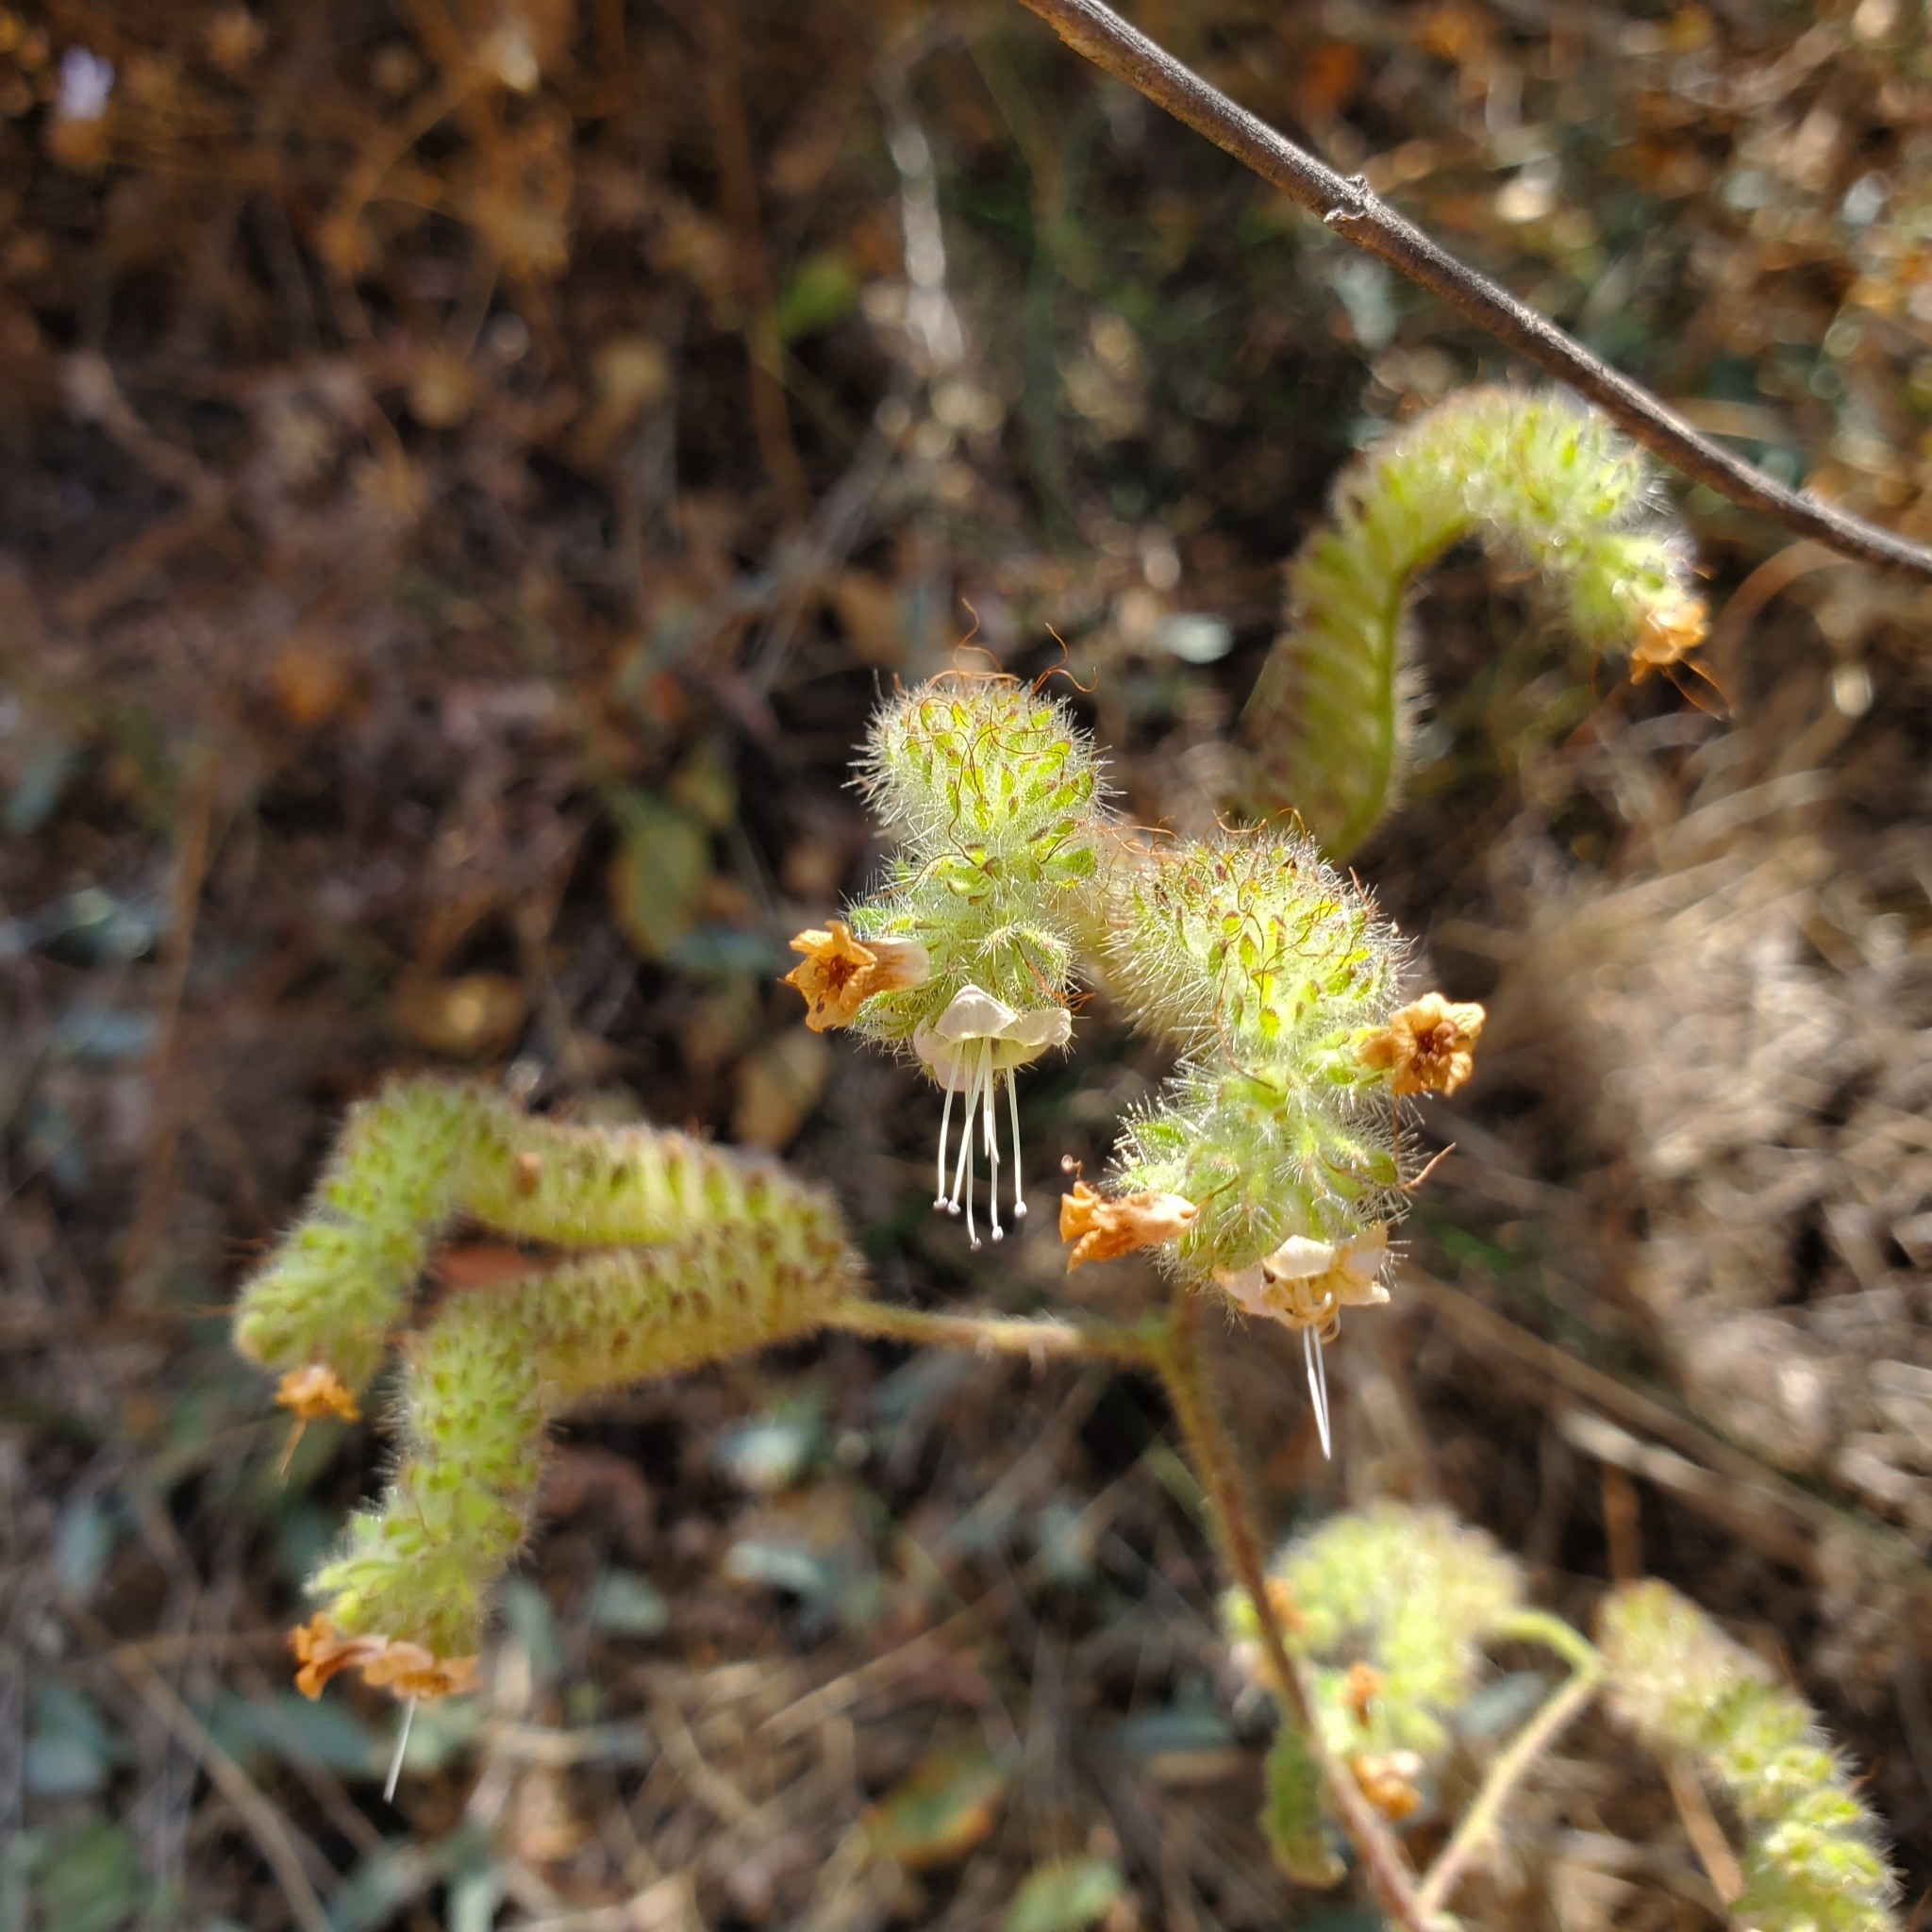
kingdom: Plantae
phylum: Tracheophyta
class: Magnoliopsida
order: Boraginales
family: Hydrophyllaceae
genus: Phacelia
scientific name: Phacelia ramosissima
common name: Branching phacelia
